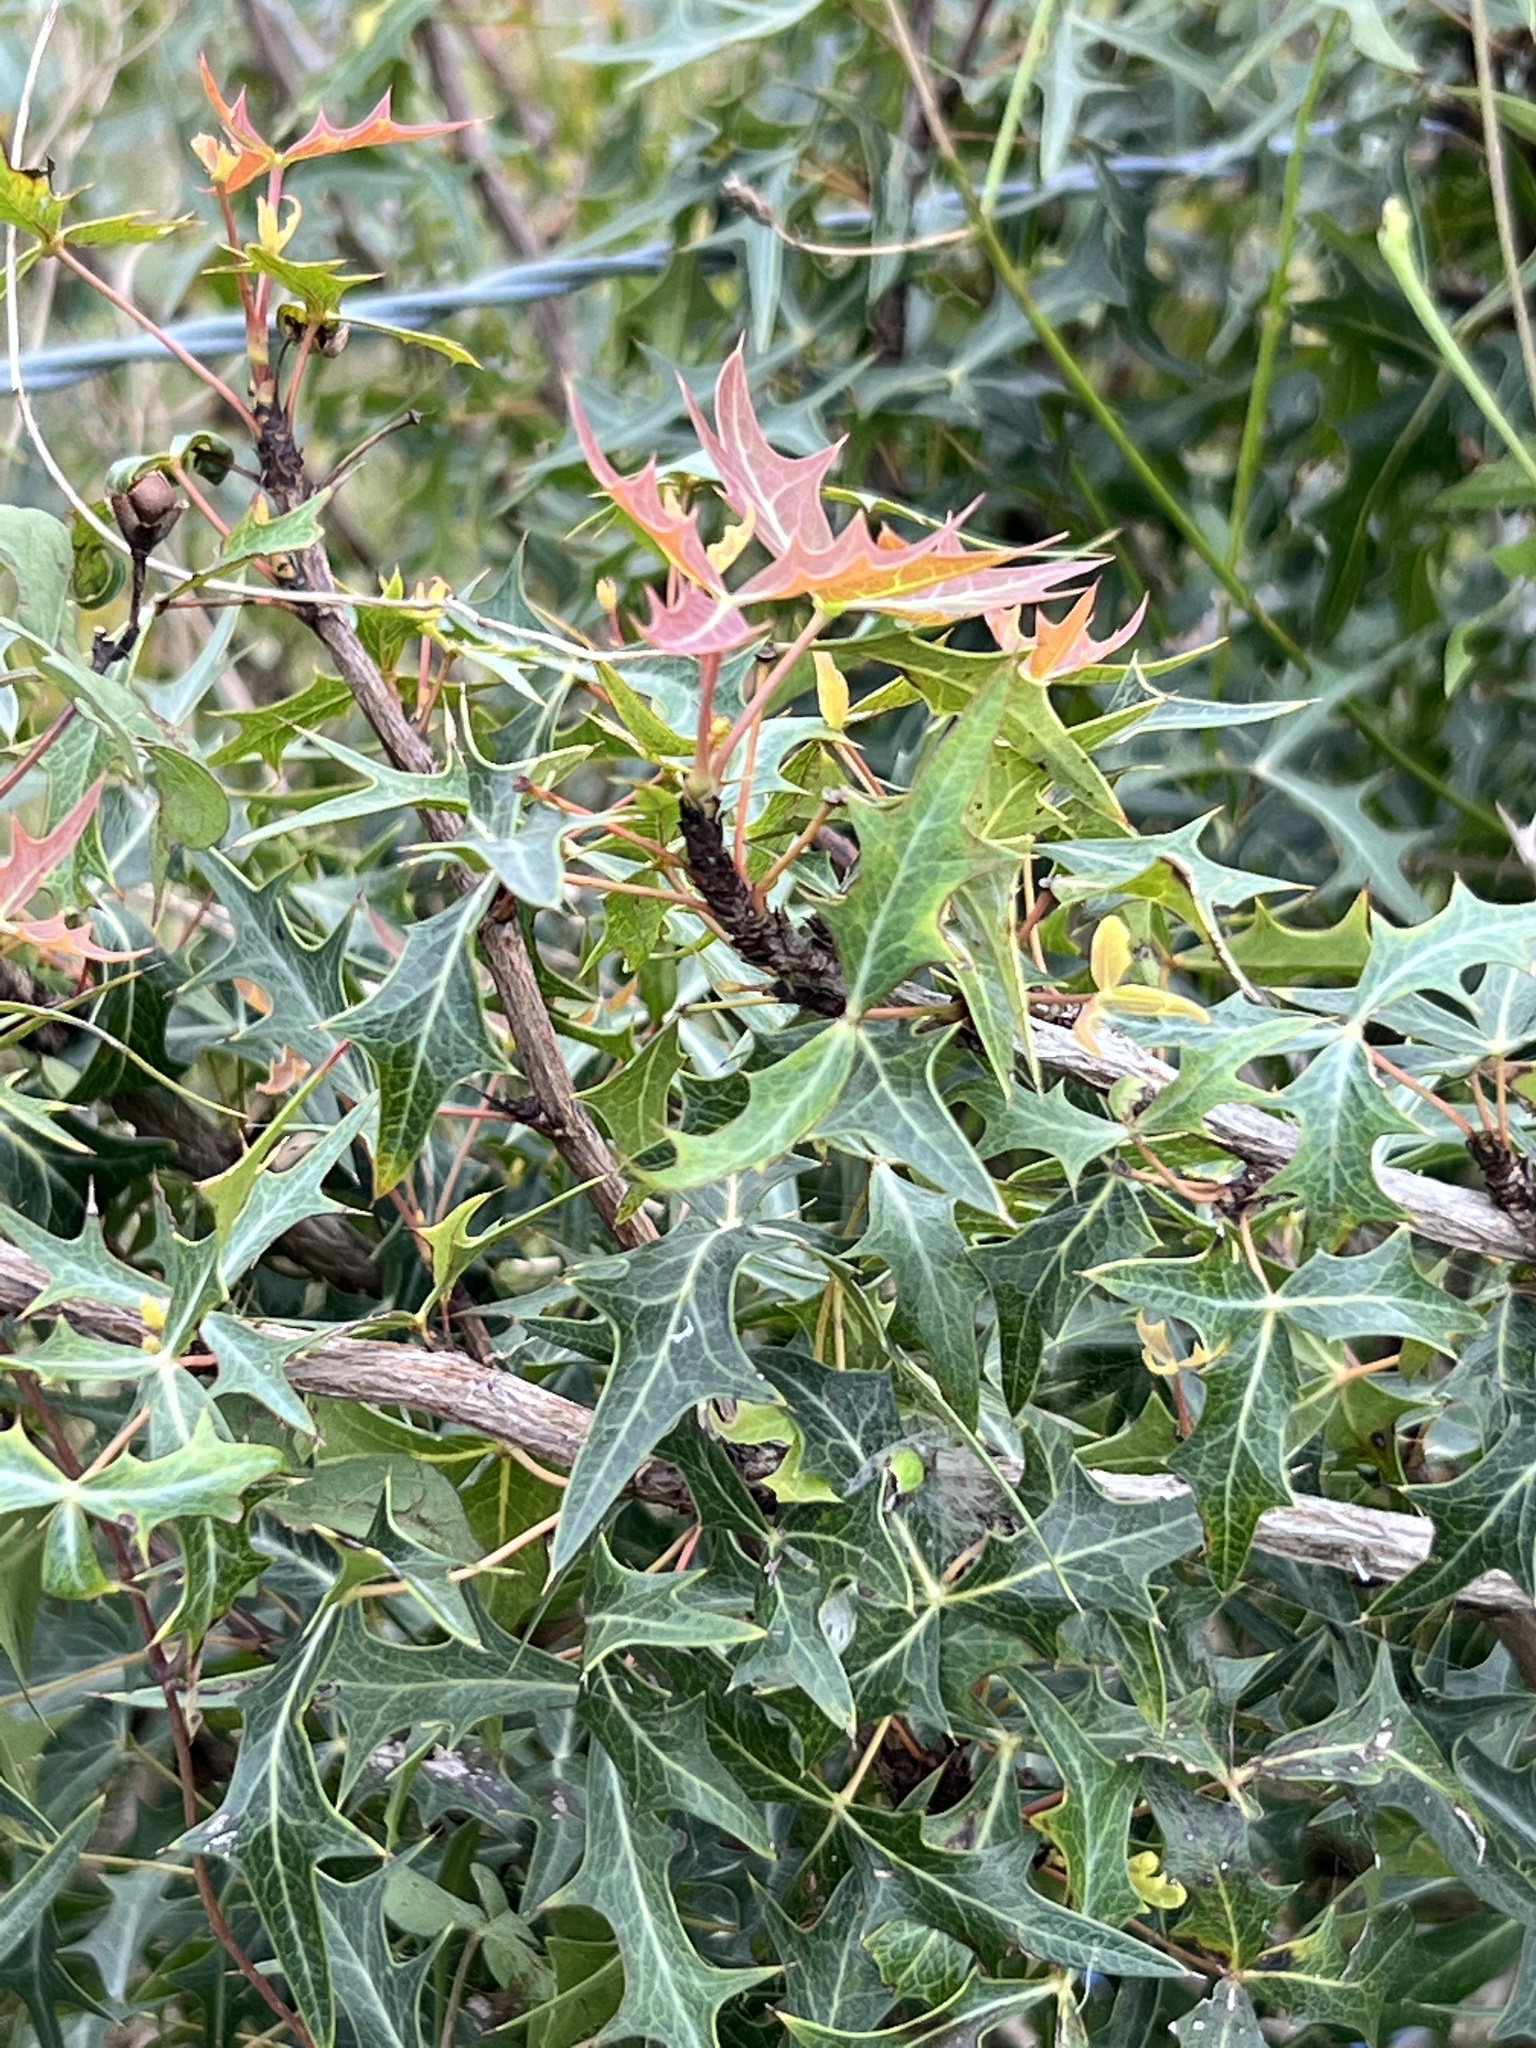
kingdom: Plantae
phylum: Tracheophyta
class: Magnoliopsida
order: Ranunculales
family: Berberidaceae
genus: Alloberberis
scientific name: Alloberberis trifoliolata
